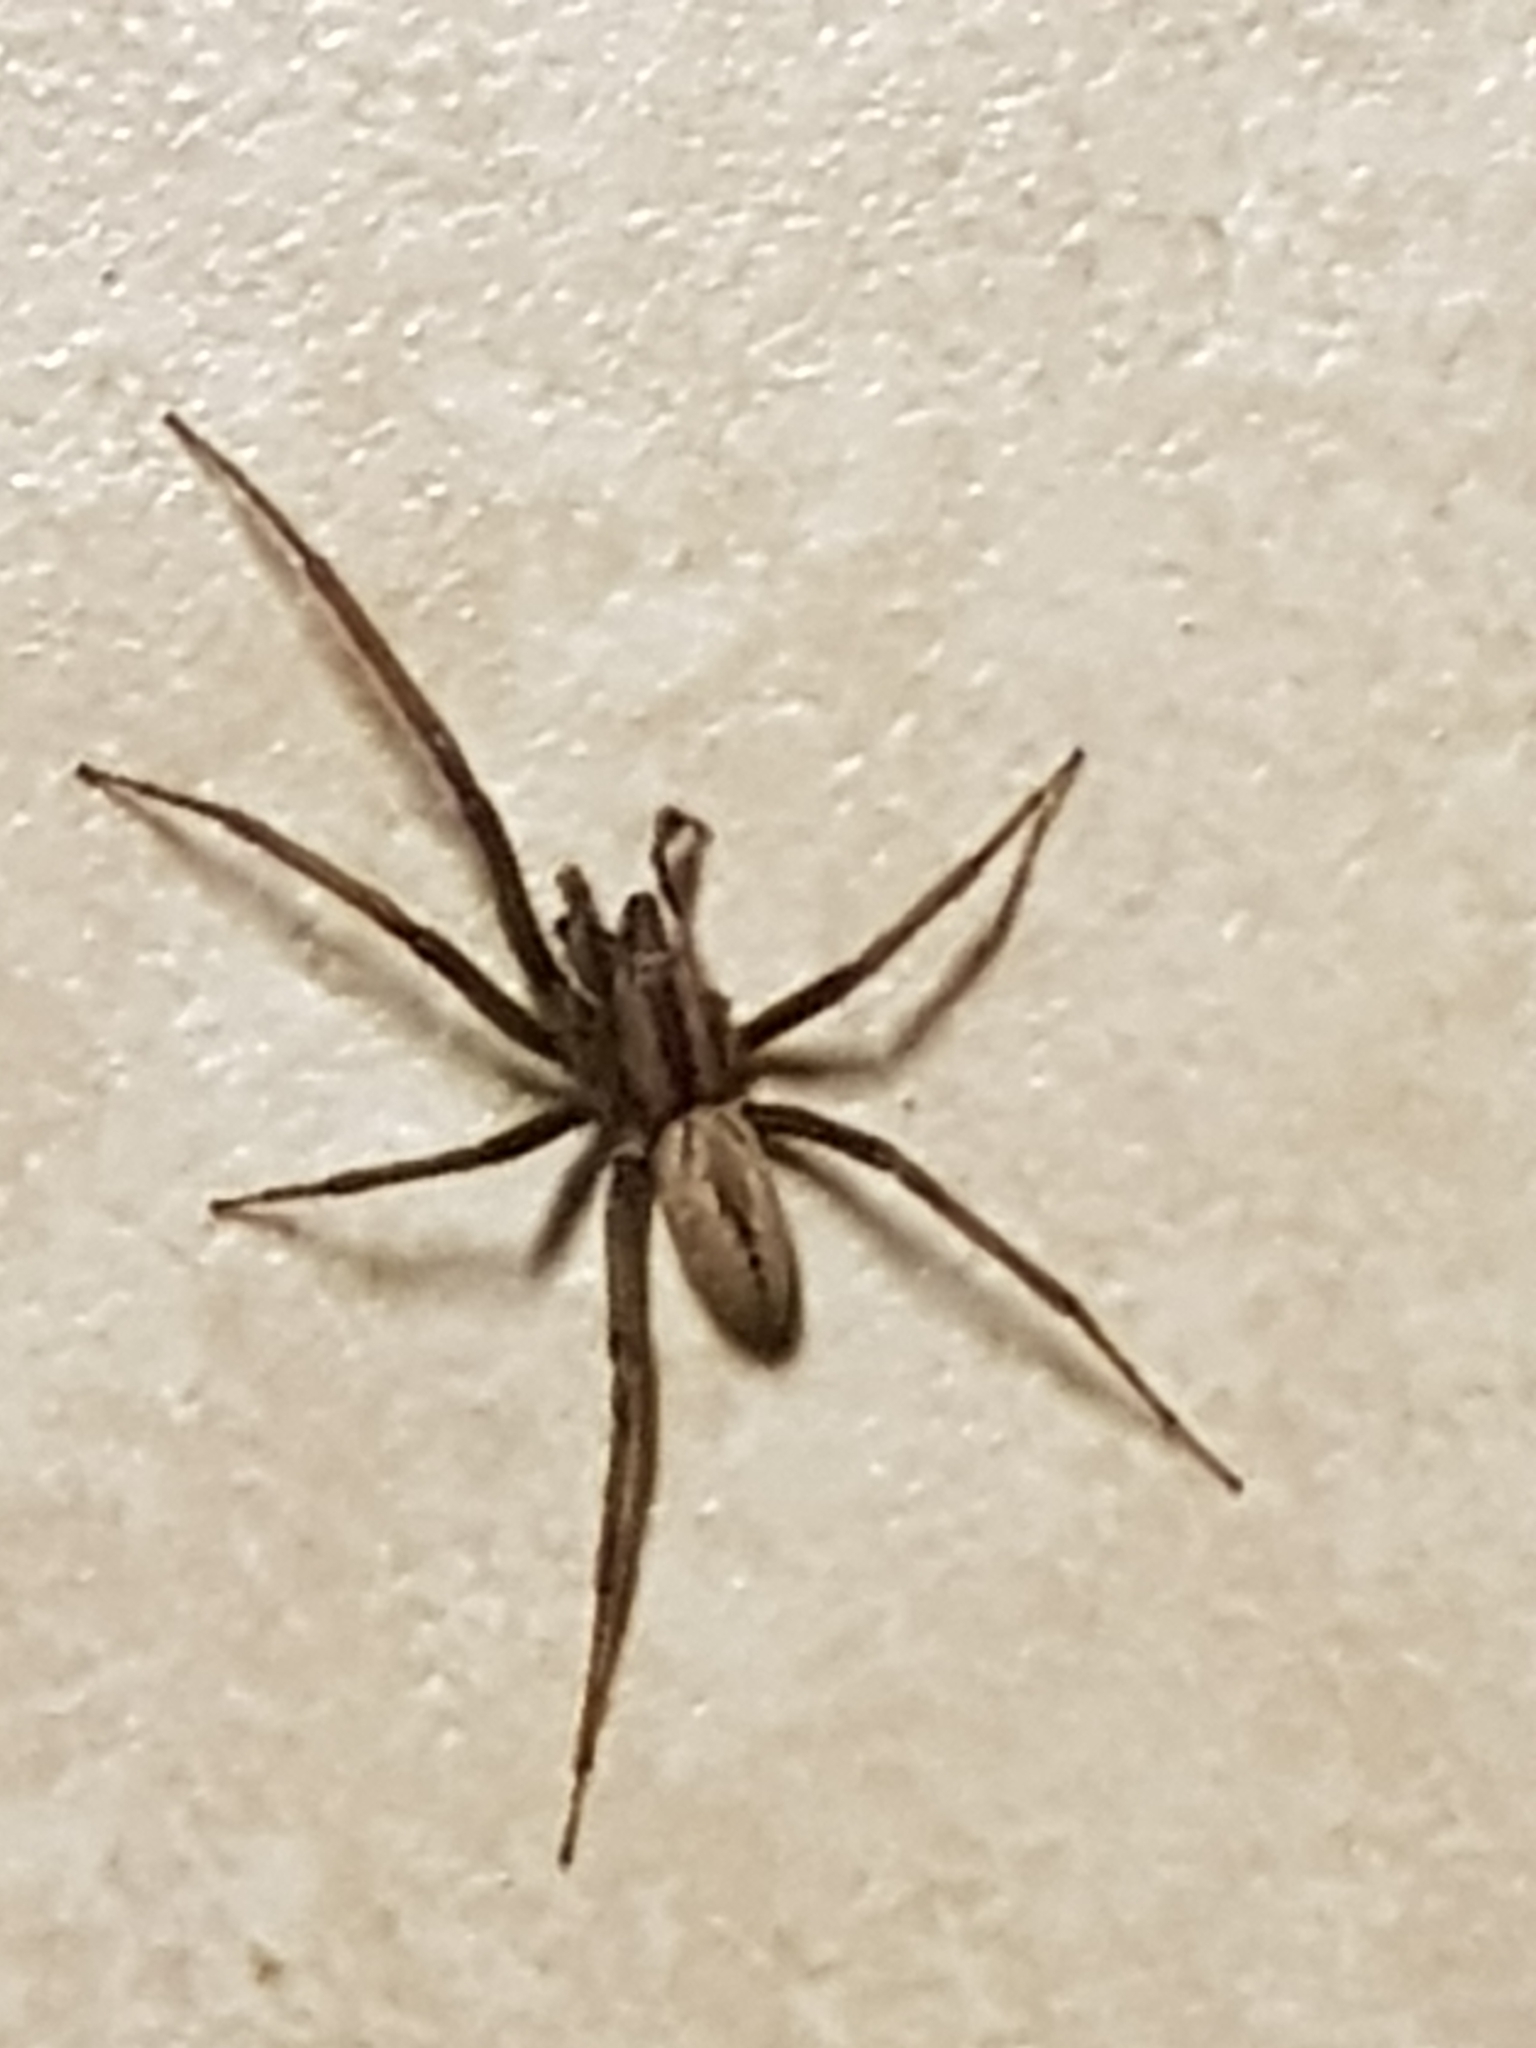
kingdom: Animalia
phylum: Arthropoda
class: Arachnida
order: Araneae
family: Desidae
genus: Cambridgea
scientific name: Cambridgea
